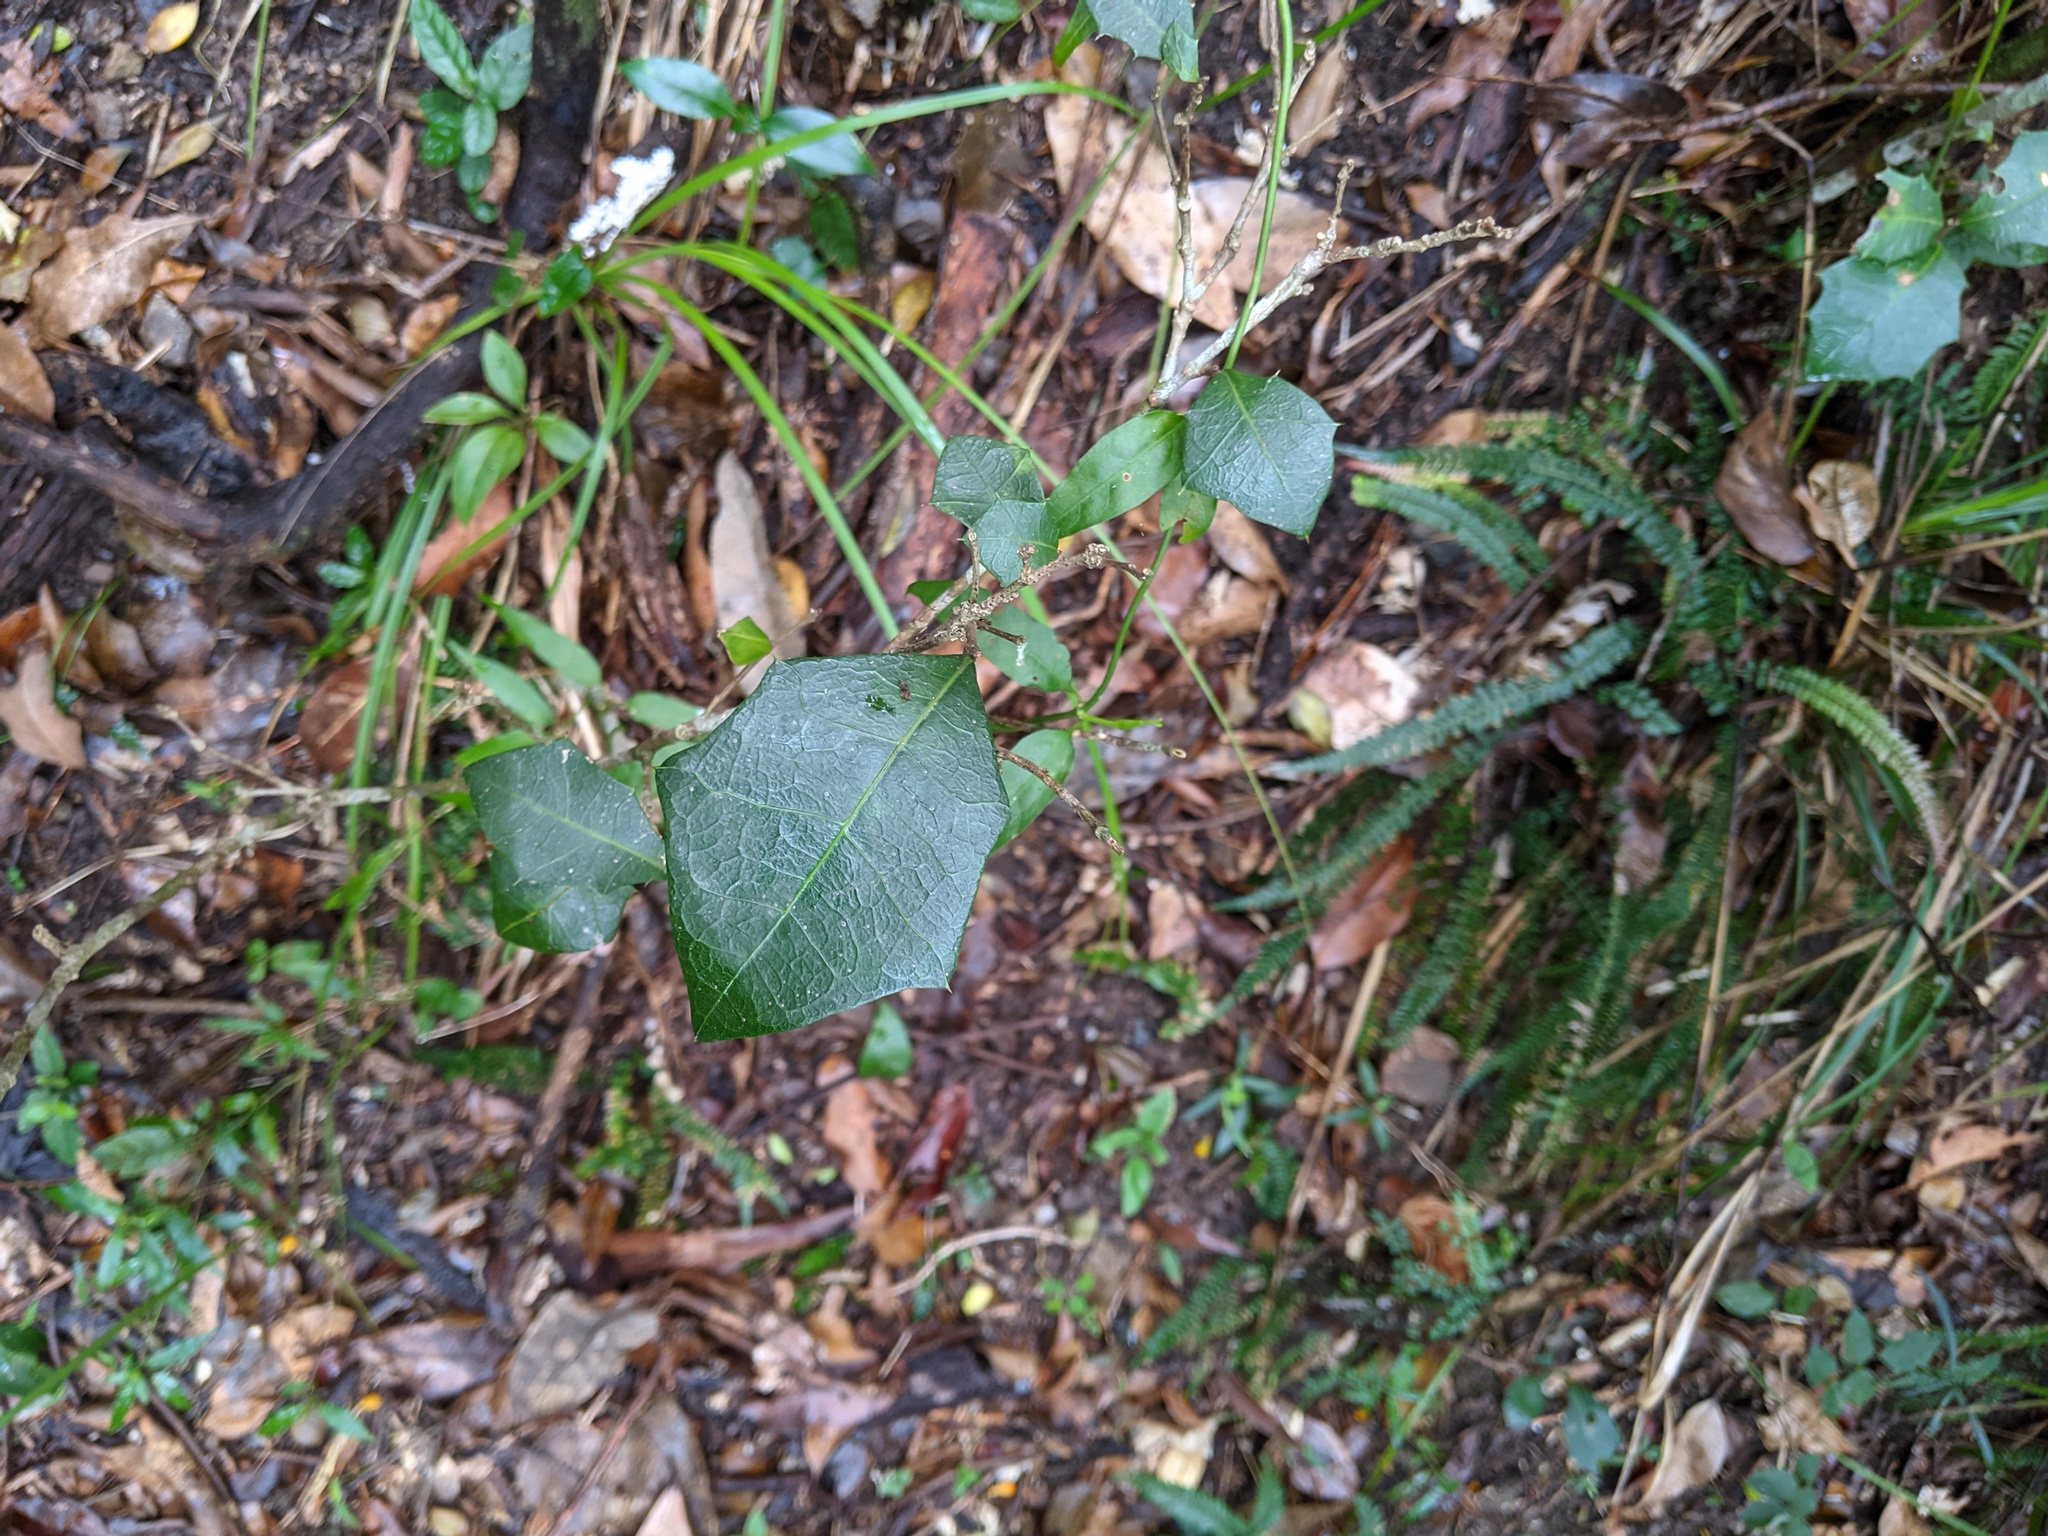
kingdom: Plantae
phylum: Tracheophyta
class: Magnoliopsida
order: Malpighiales
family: Euphorbiaceae
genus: Alchornea
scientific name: Alchornea ilicifolia
